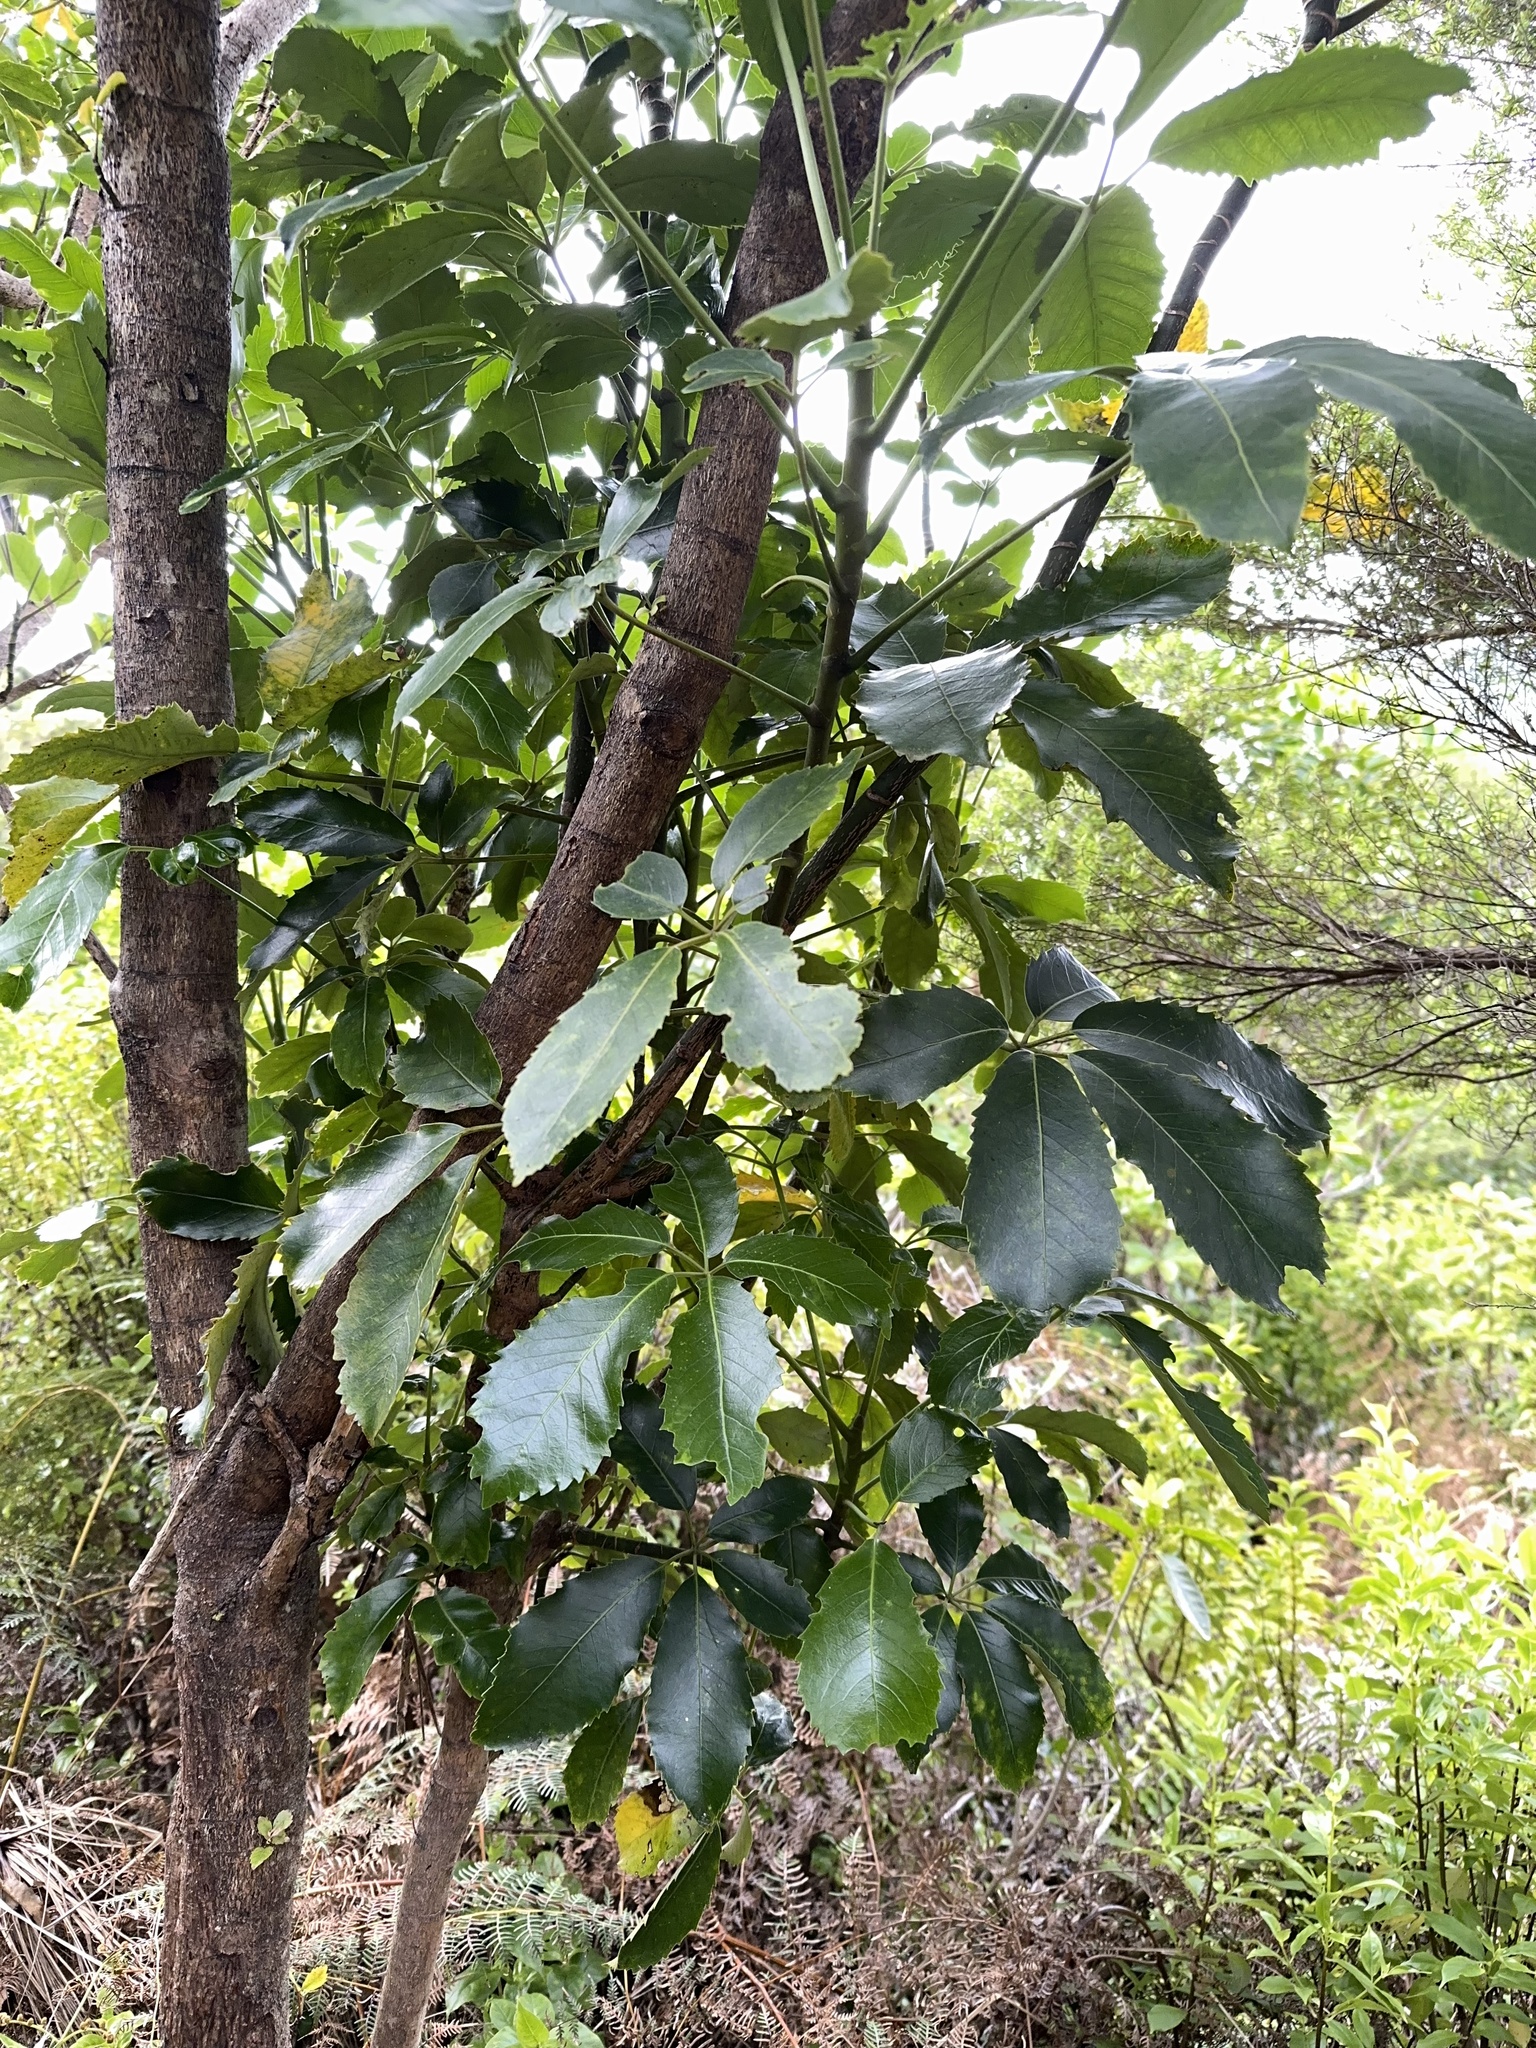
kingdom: Plantae
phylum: Tracheophyta
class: Magnoliopsida
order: Apiales
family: Araliaceae
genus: Neopanax
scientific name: Neopanax arboreus
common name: Five-fingers
